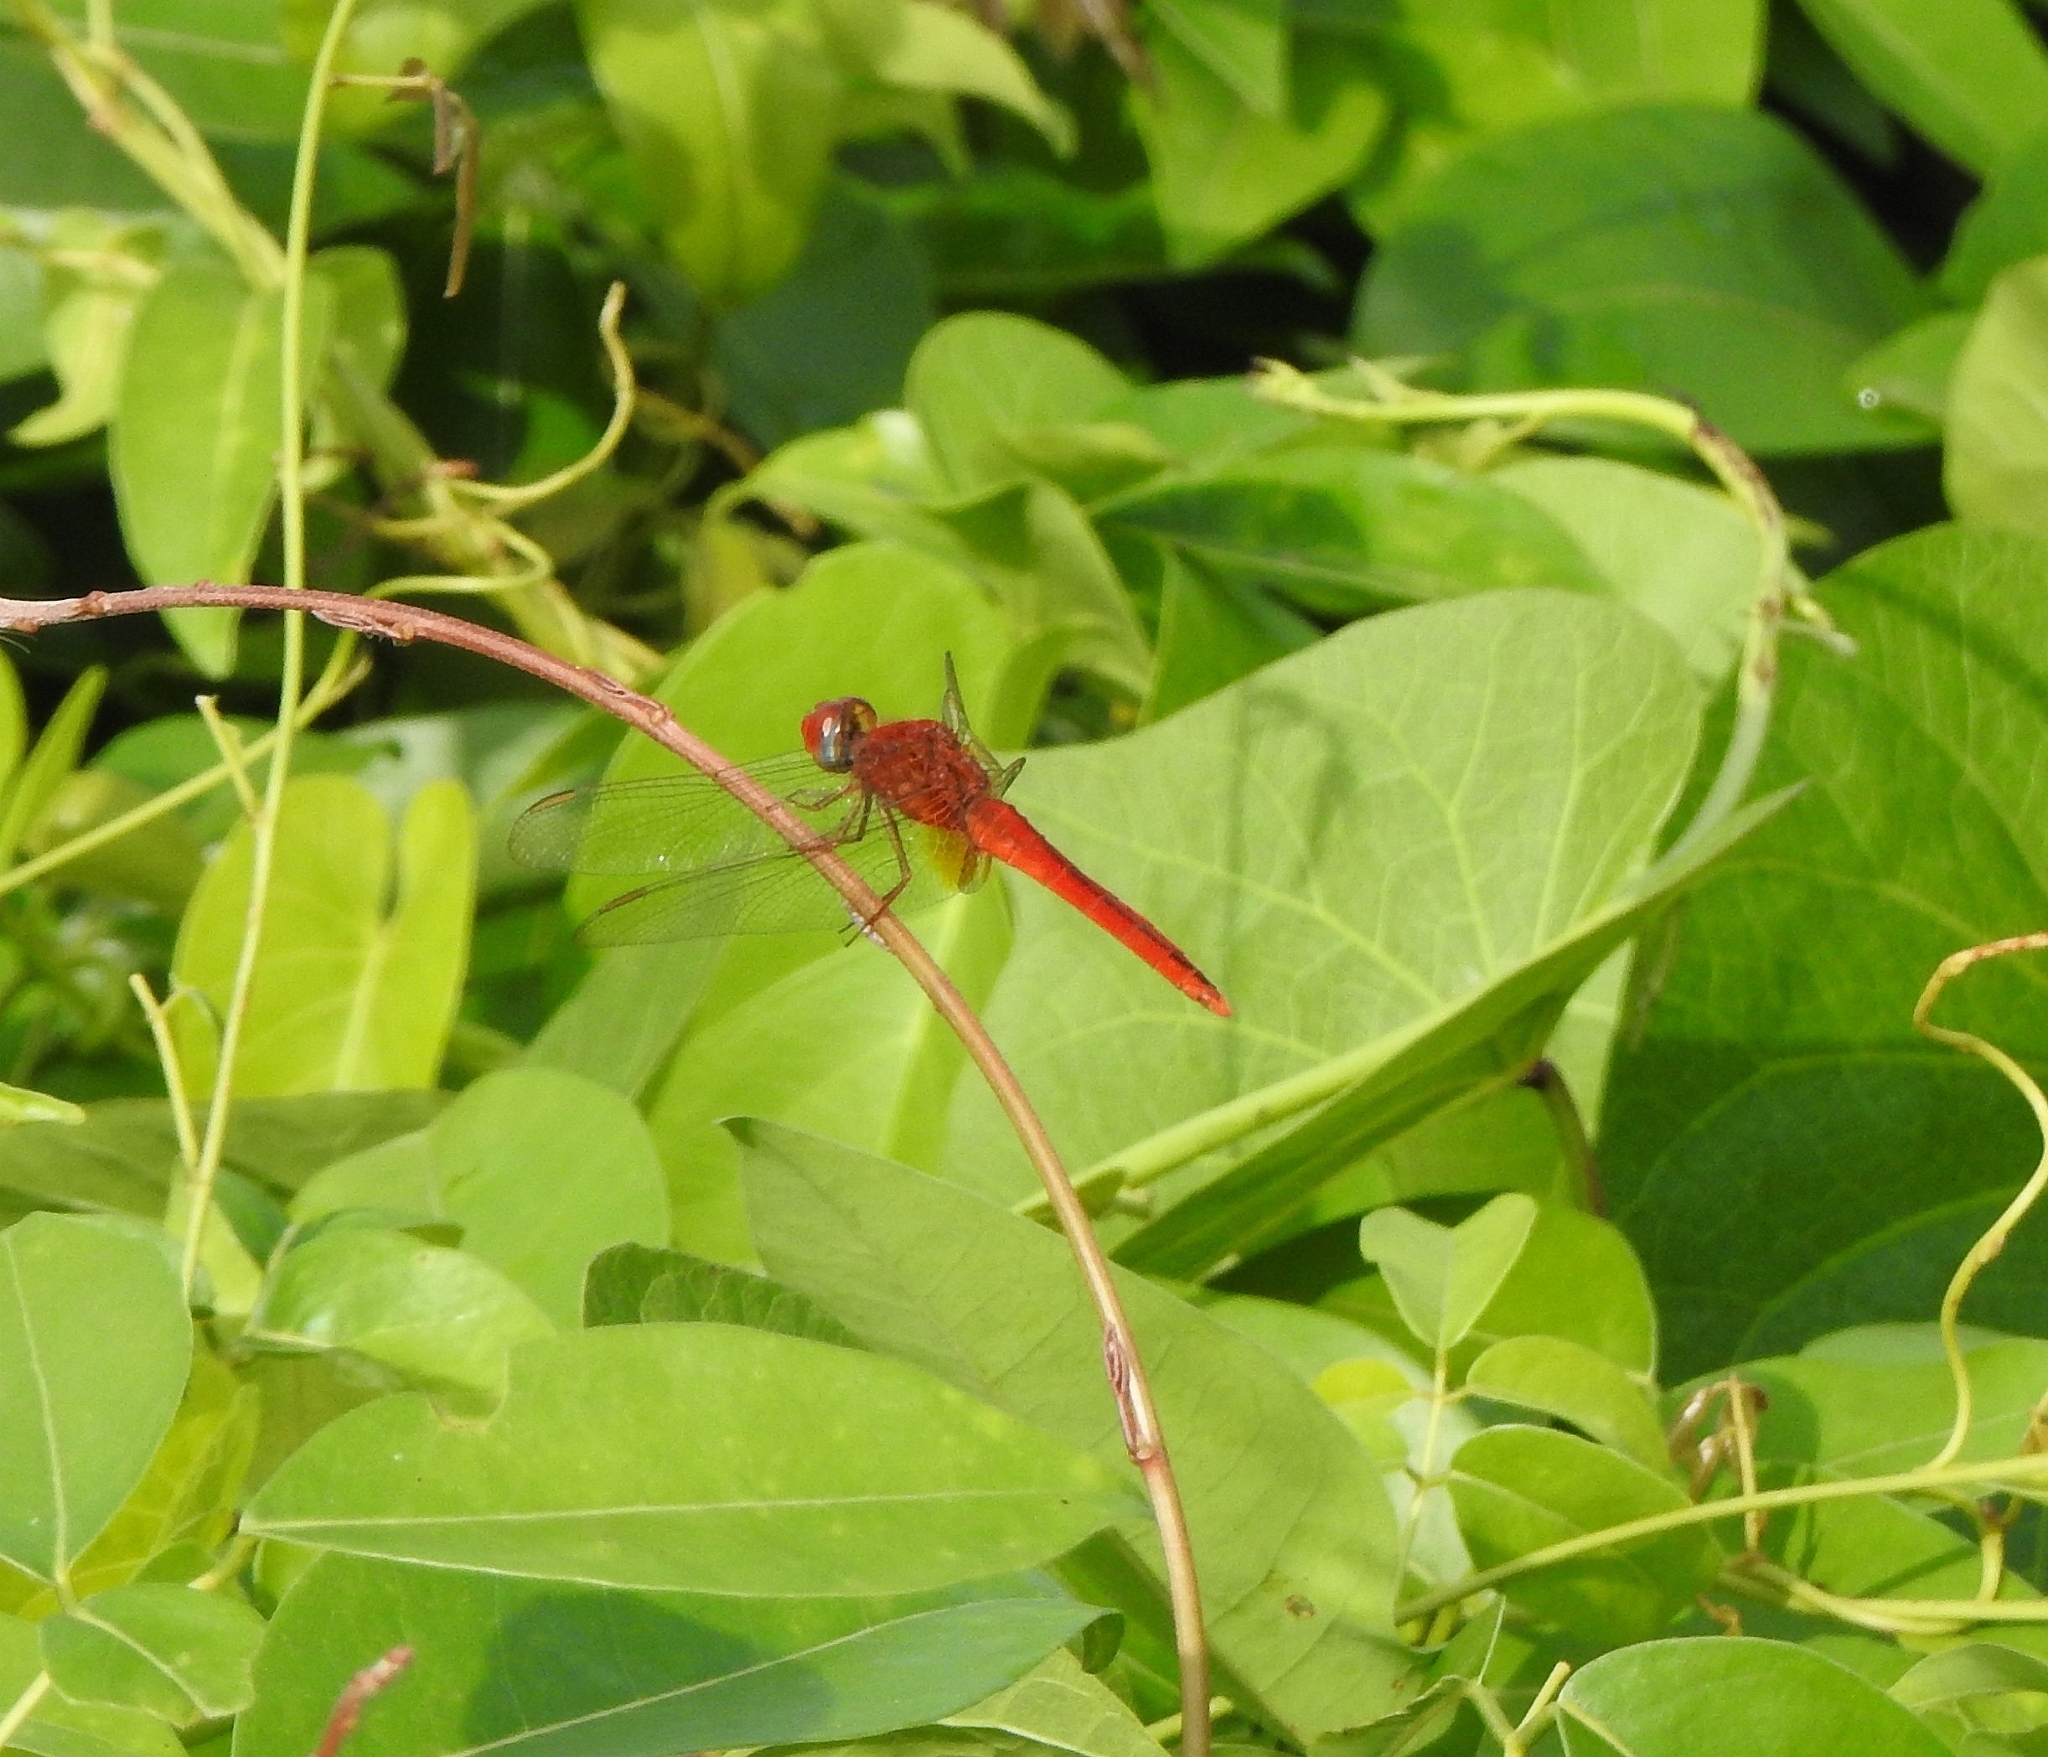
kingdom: Animalia
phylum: Arthropoda
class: Insecta
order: Odonata
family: Libellulidae
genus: Crocothemis
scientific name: Crocothemis servilia
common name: Scarlet skimmer
